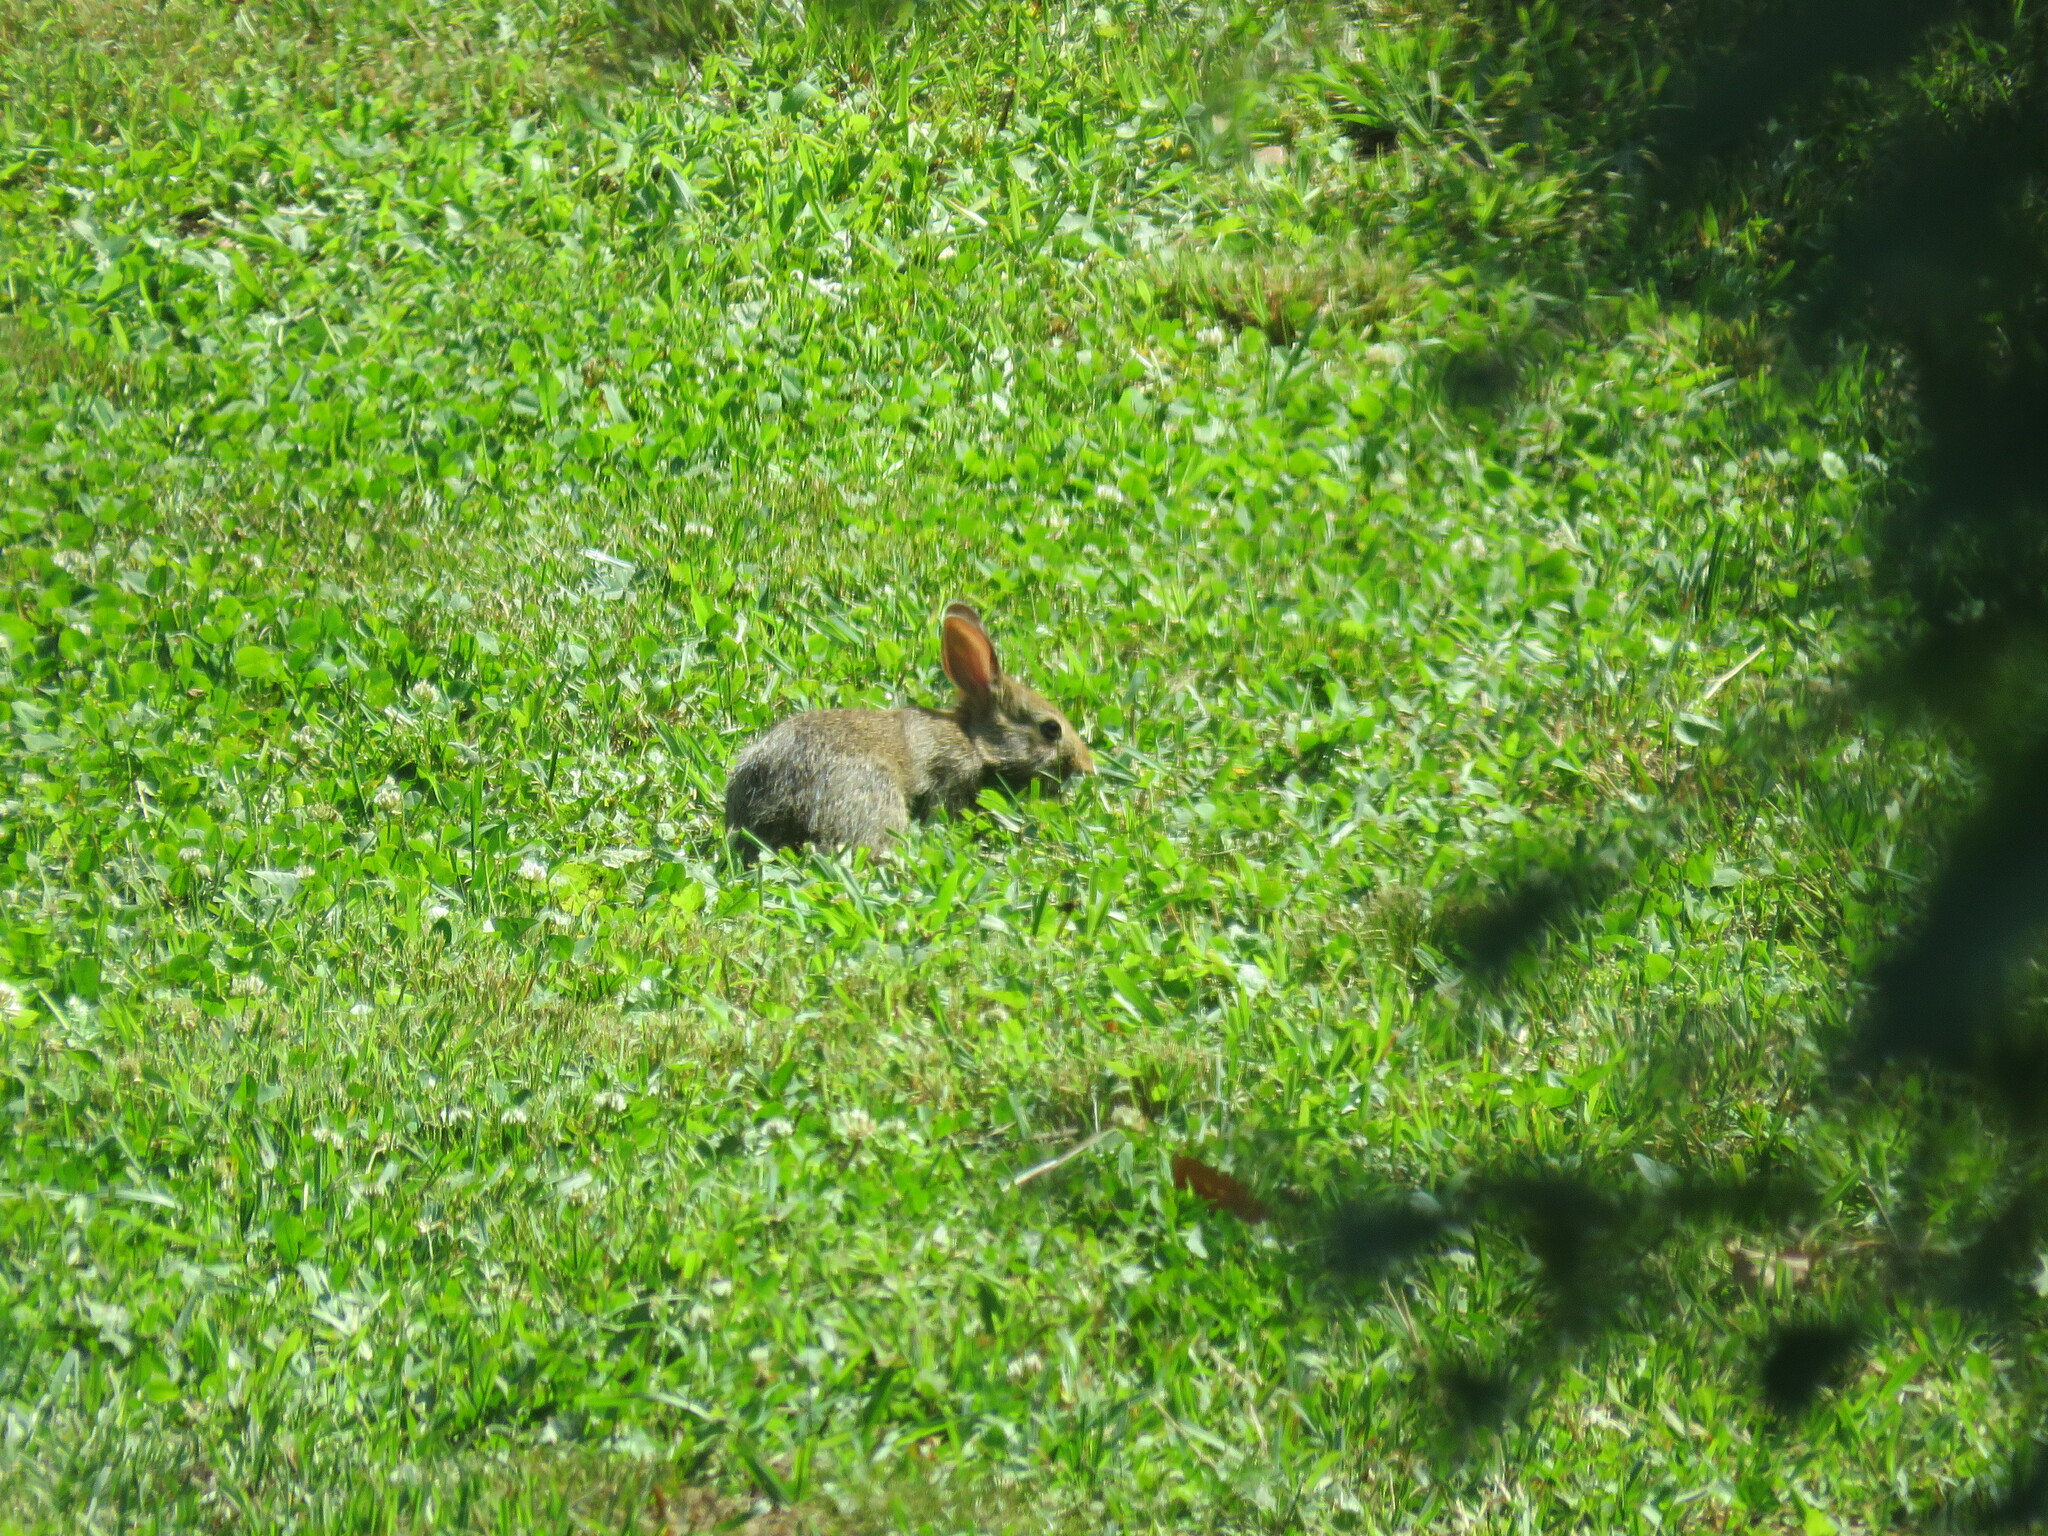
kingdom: Animalia
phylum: Chordata
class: Mammalia
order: Lagomorpha
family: Leporidae
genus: Sylvilagus
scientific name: Sylvilagus floridanus
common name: Eastern cottontail
